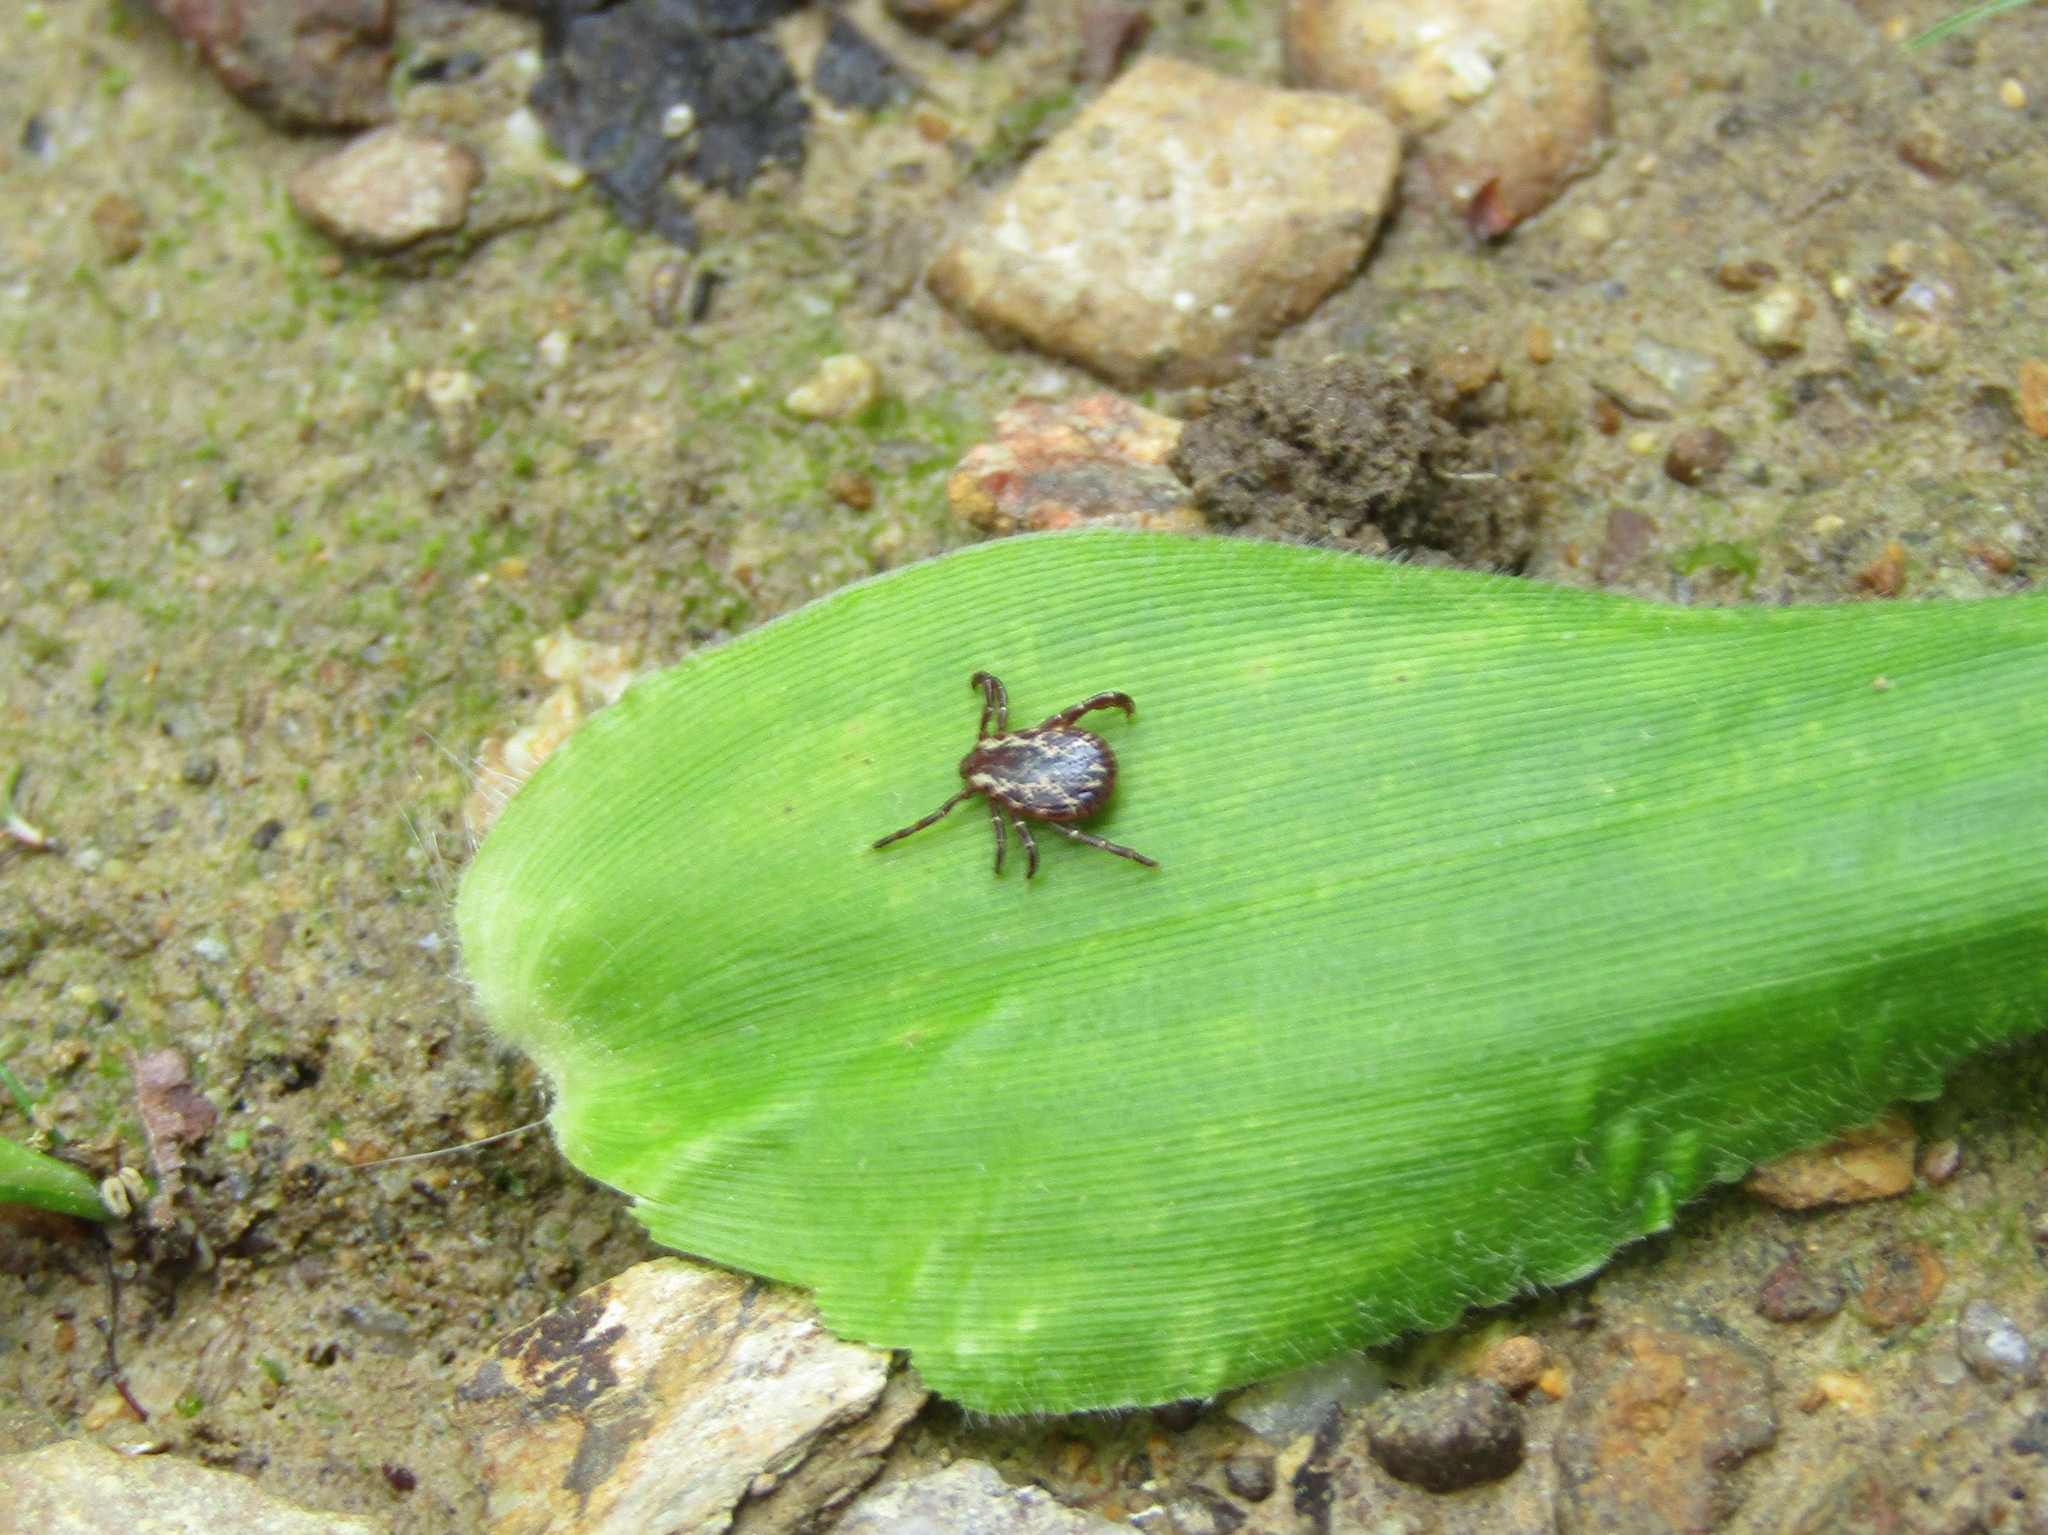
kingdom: Animalia
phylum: Arthropoda
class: Arachnida
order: Ixodida
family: Ixodidae
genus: Dermacentor
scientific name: Dermacentor variabilis
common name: American dog tick
